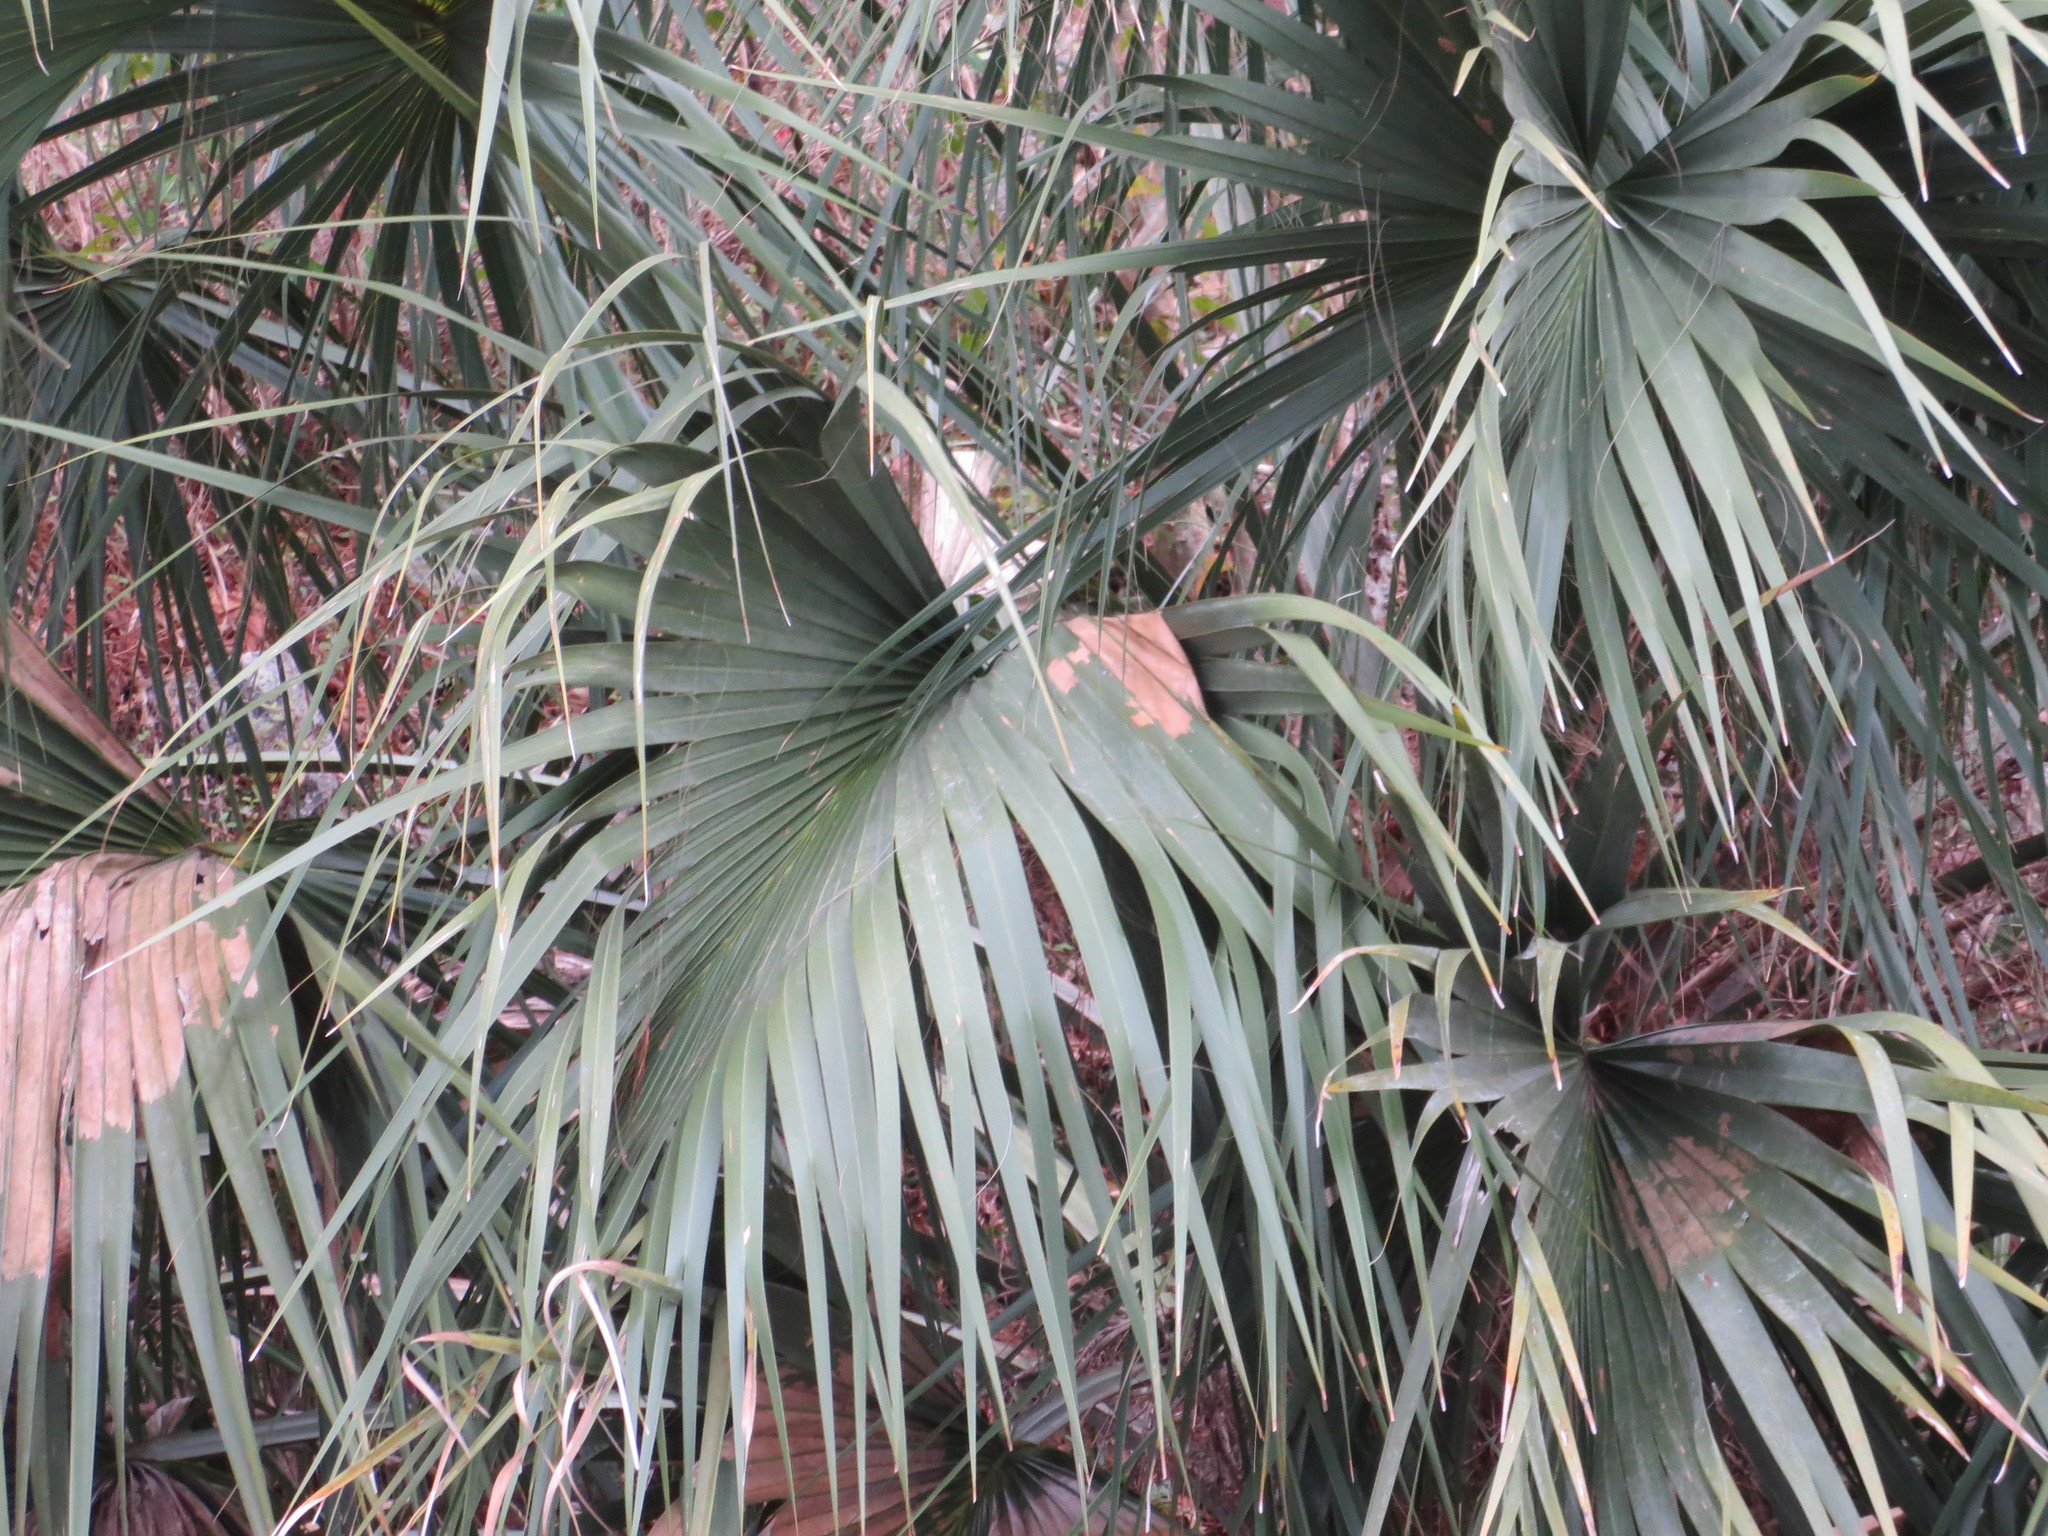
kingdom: Plantae
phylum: Tracheophyta
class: Liliopsida
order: Arecales
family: Arecaceae
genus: Sabal
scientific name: Sabal palmetto
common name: Blue palmetto
